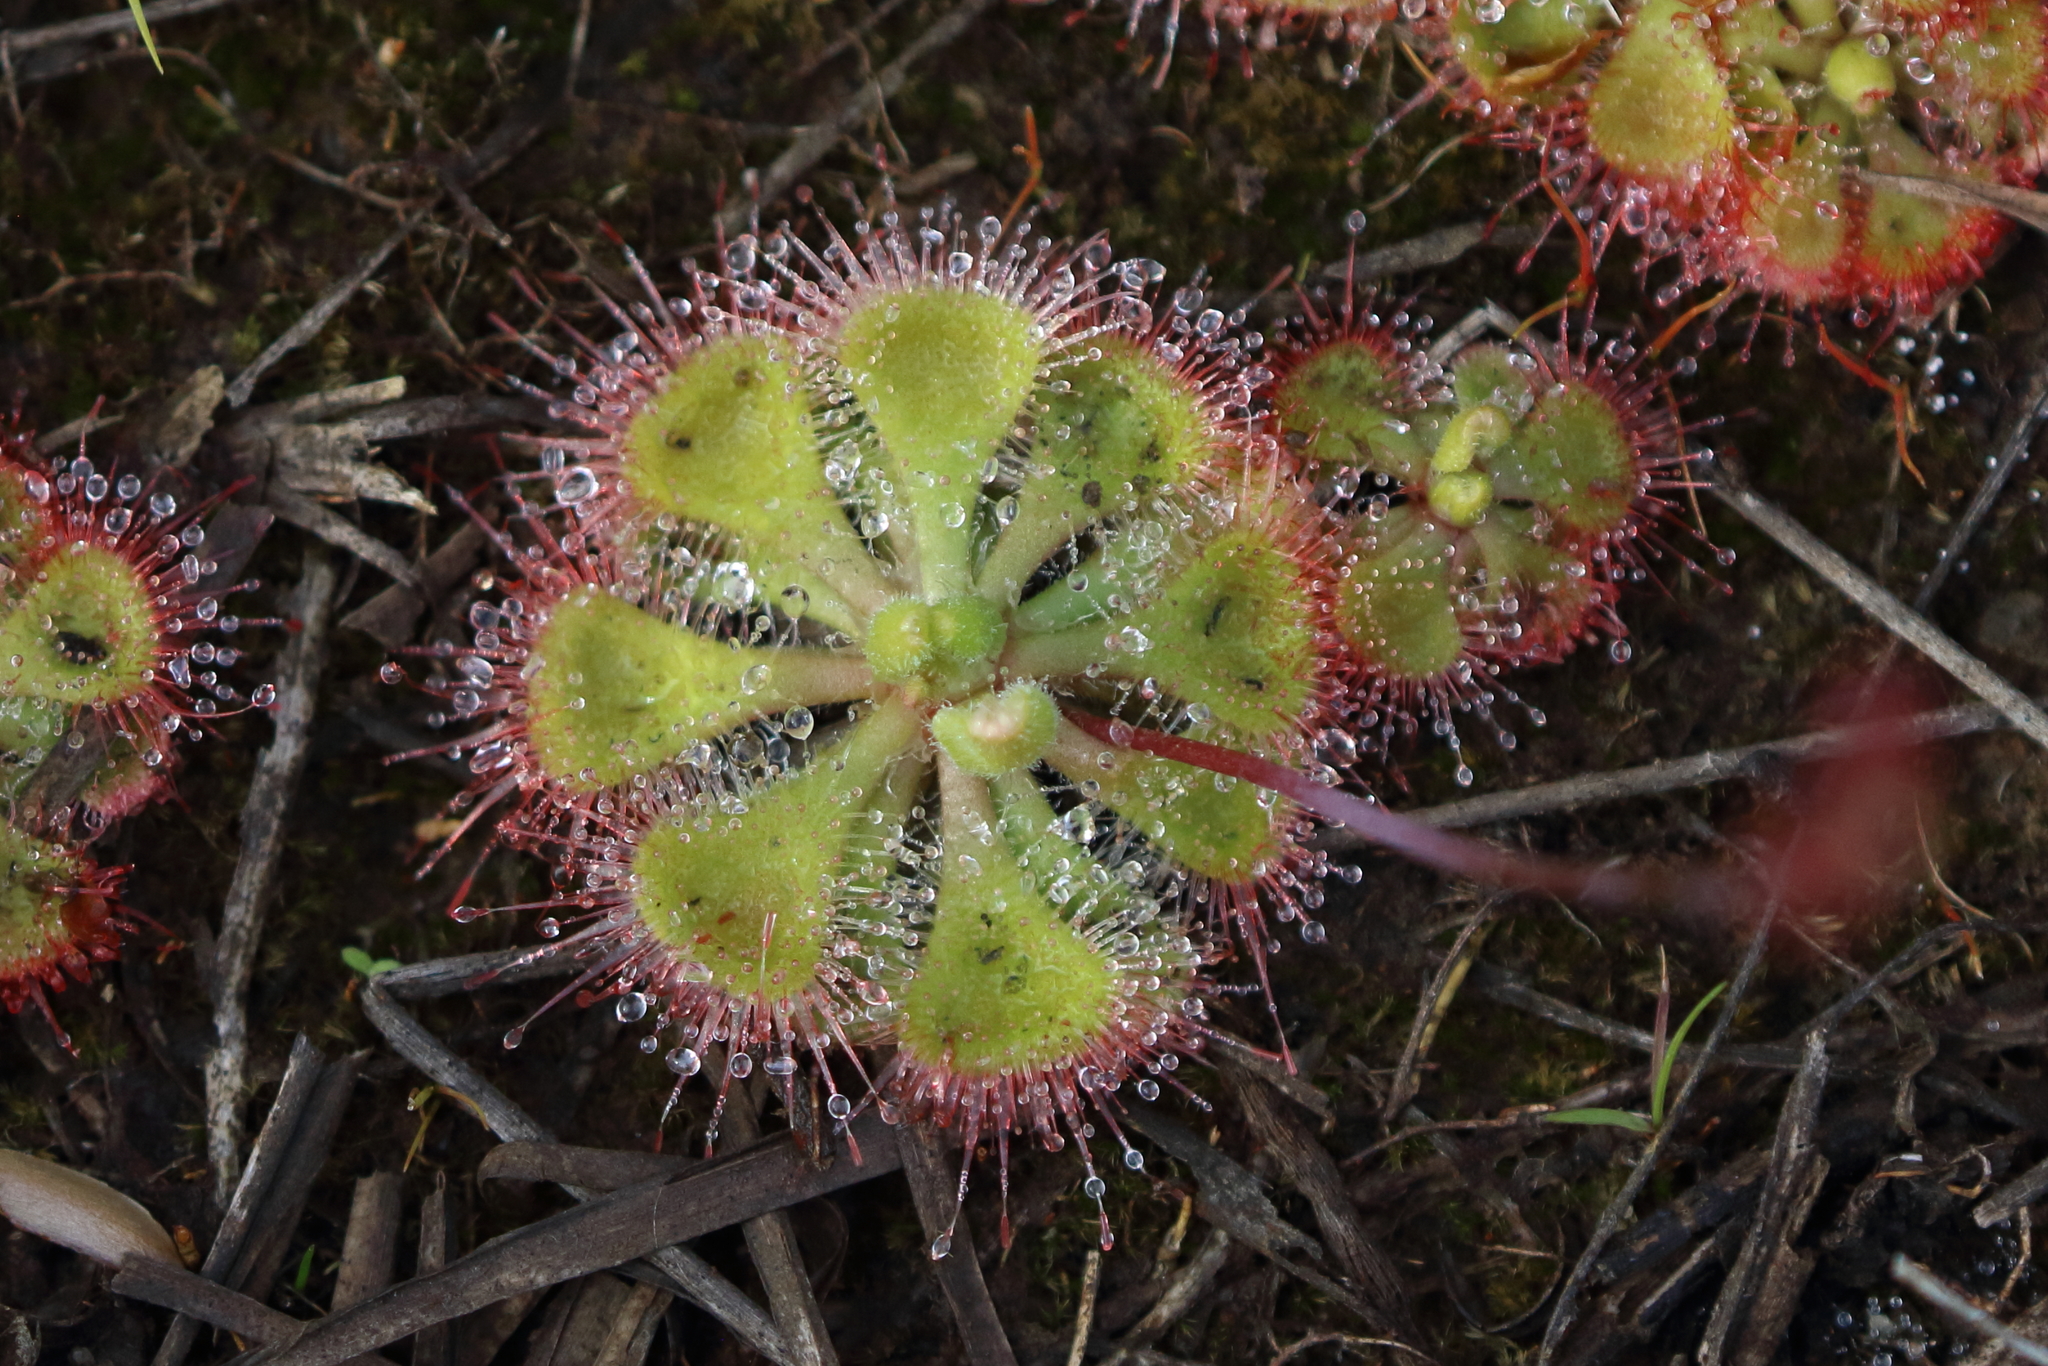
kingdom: Plantae
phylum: Tracheophyta
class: Magnoliopsida
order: Caryophyllales
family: Droseraceae
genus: Drosera
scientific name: Drosera spatulata
